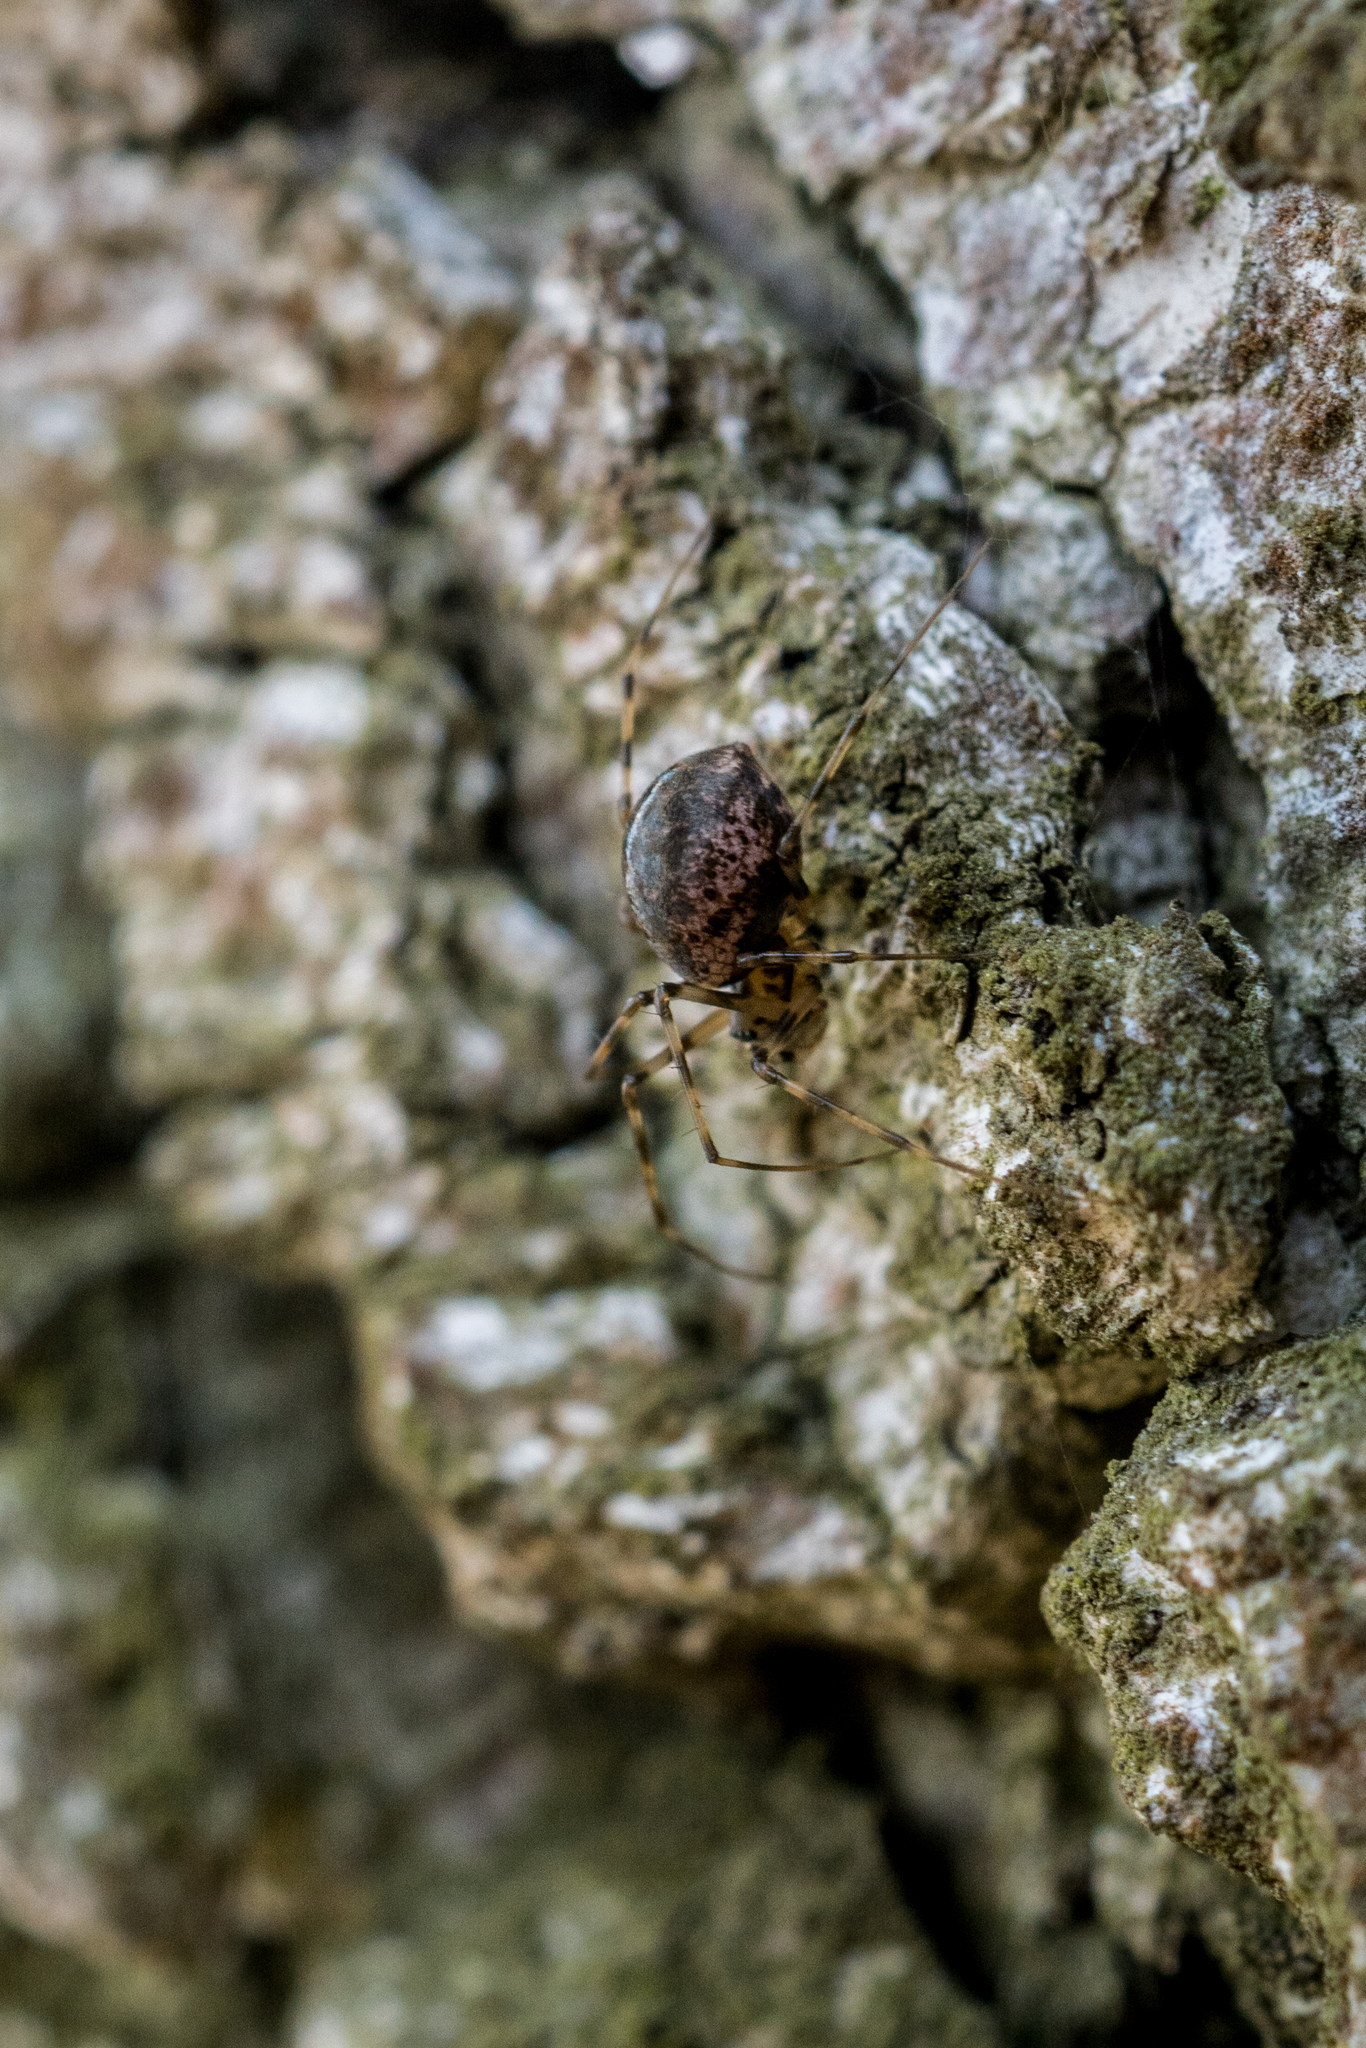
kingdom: Animalia
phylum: Arthropoda
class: Arachnida
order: Araneae
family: Linyphiidae
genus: Drapetisca
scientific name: Drapetisca socialis
